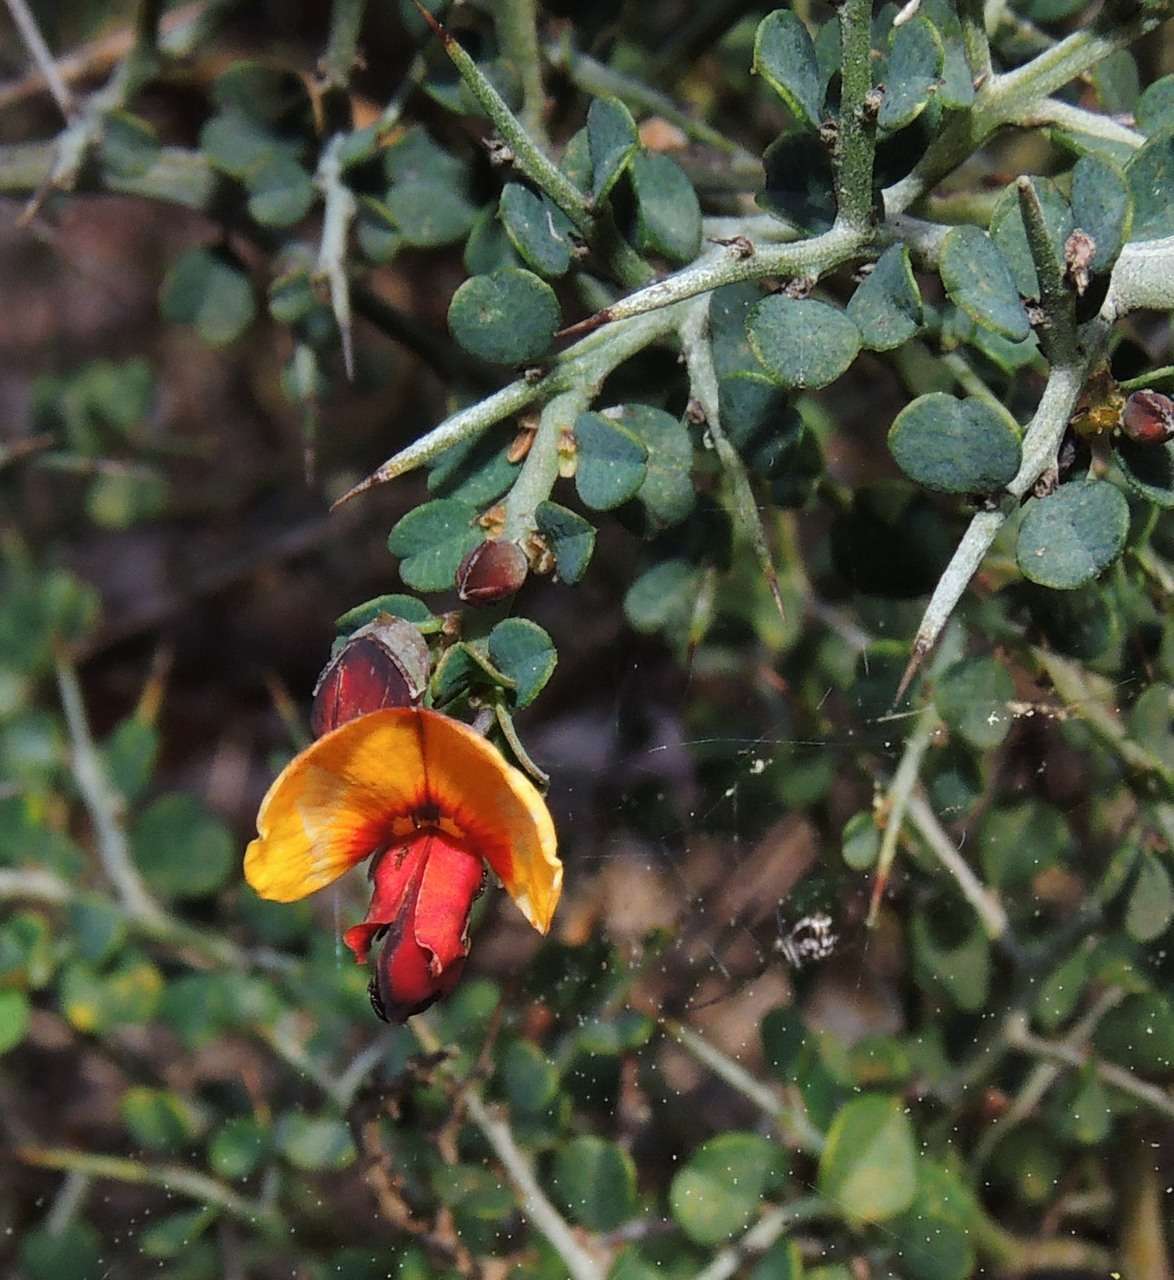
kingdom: Plantae
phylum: Tracheophyta
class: Magnoliopsida
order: Fabales
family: Fabaceae
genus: Bossiaea
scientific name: Bossiaea obcordata
